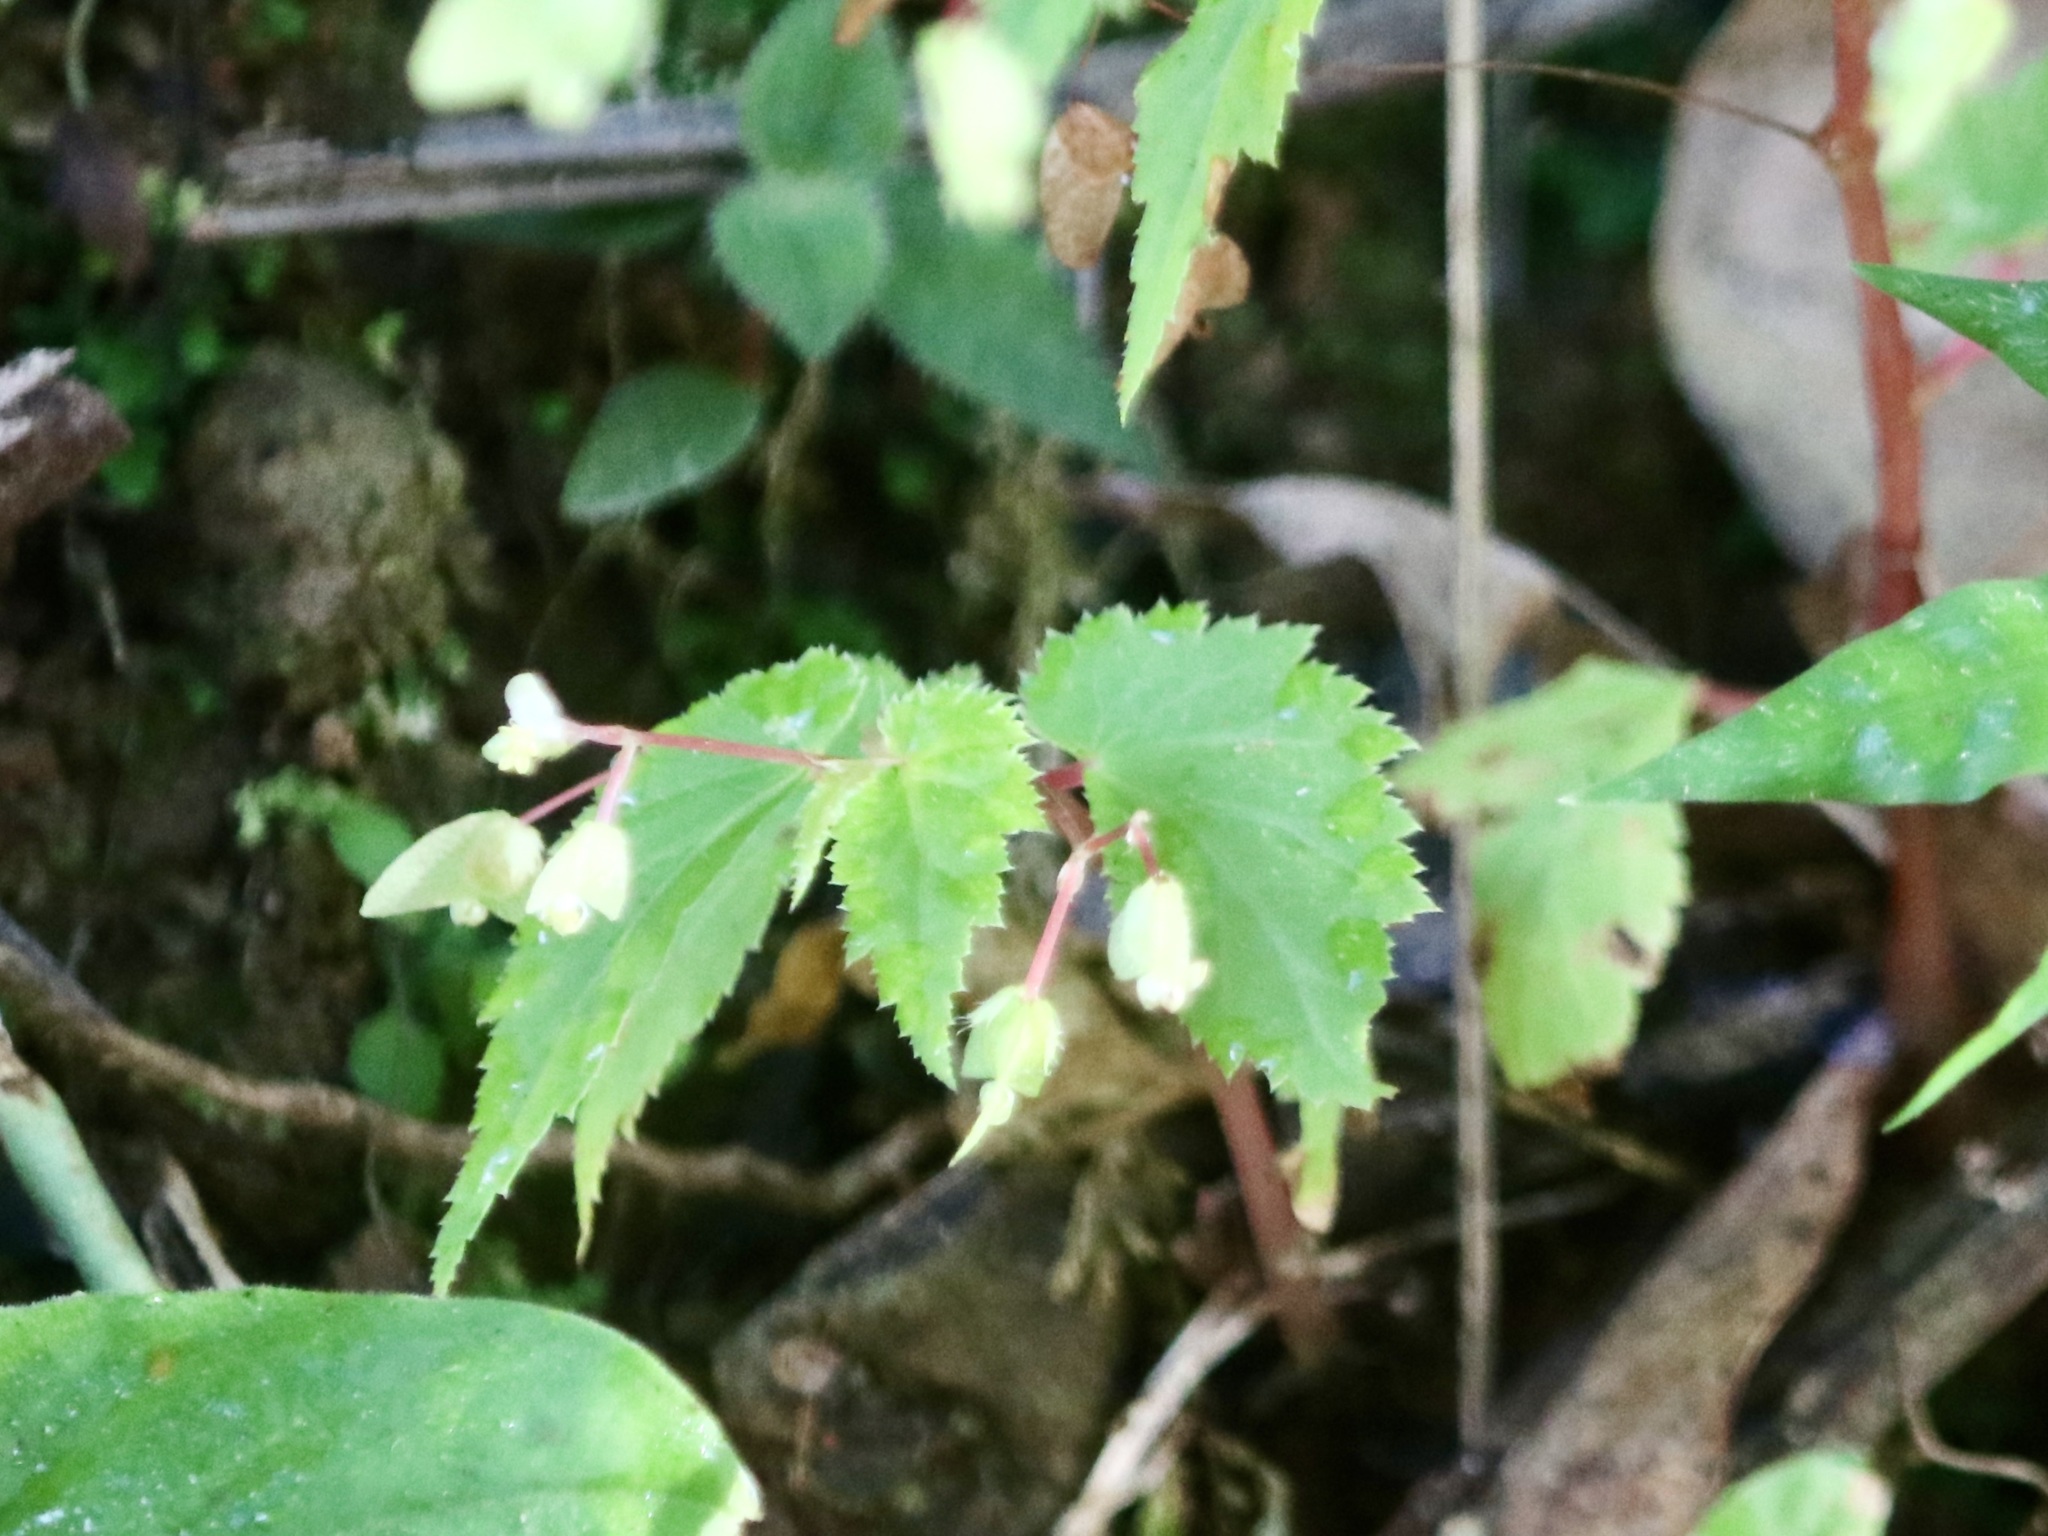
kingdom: Plantae
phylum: Tracheophyta
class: Magnoliopsida
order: Cucurbitales
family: Begoniaceae
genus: Begonia
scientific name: Begonia hirsuta
